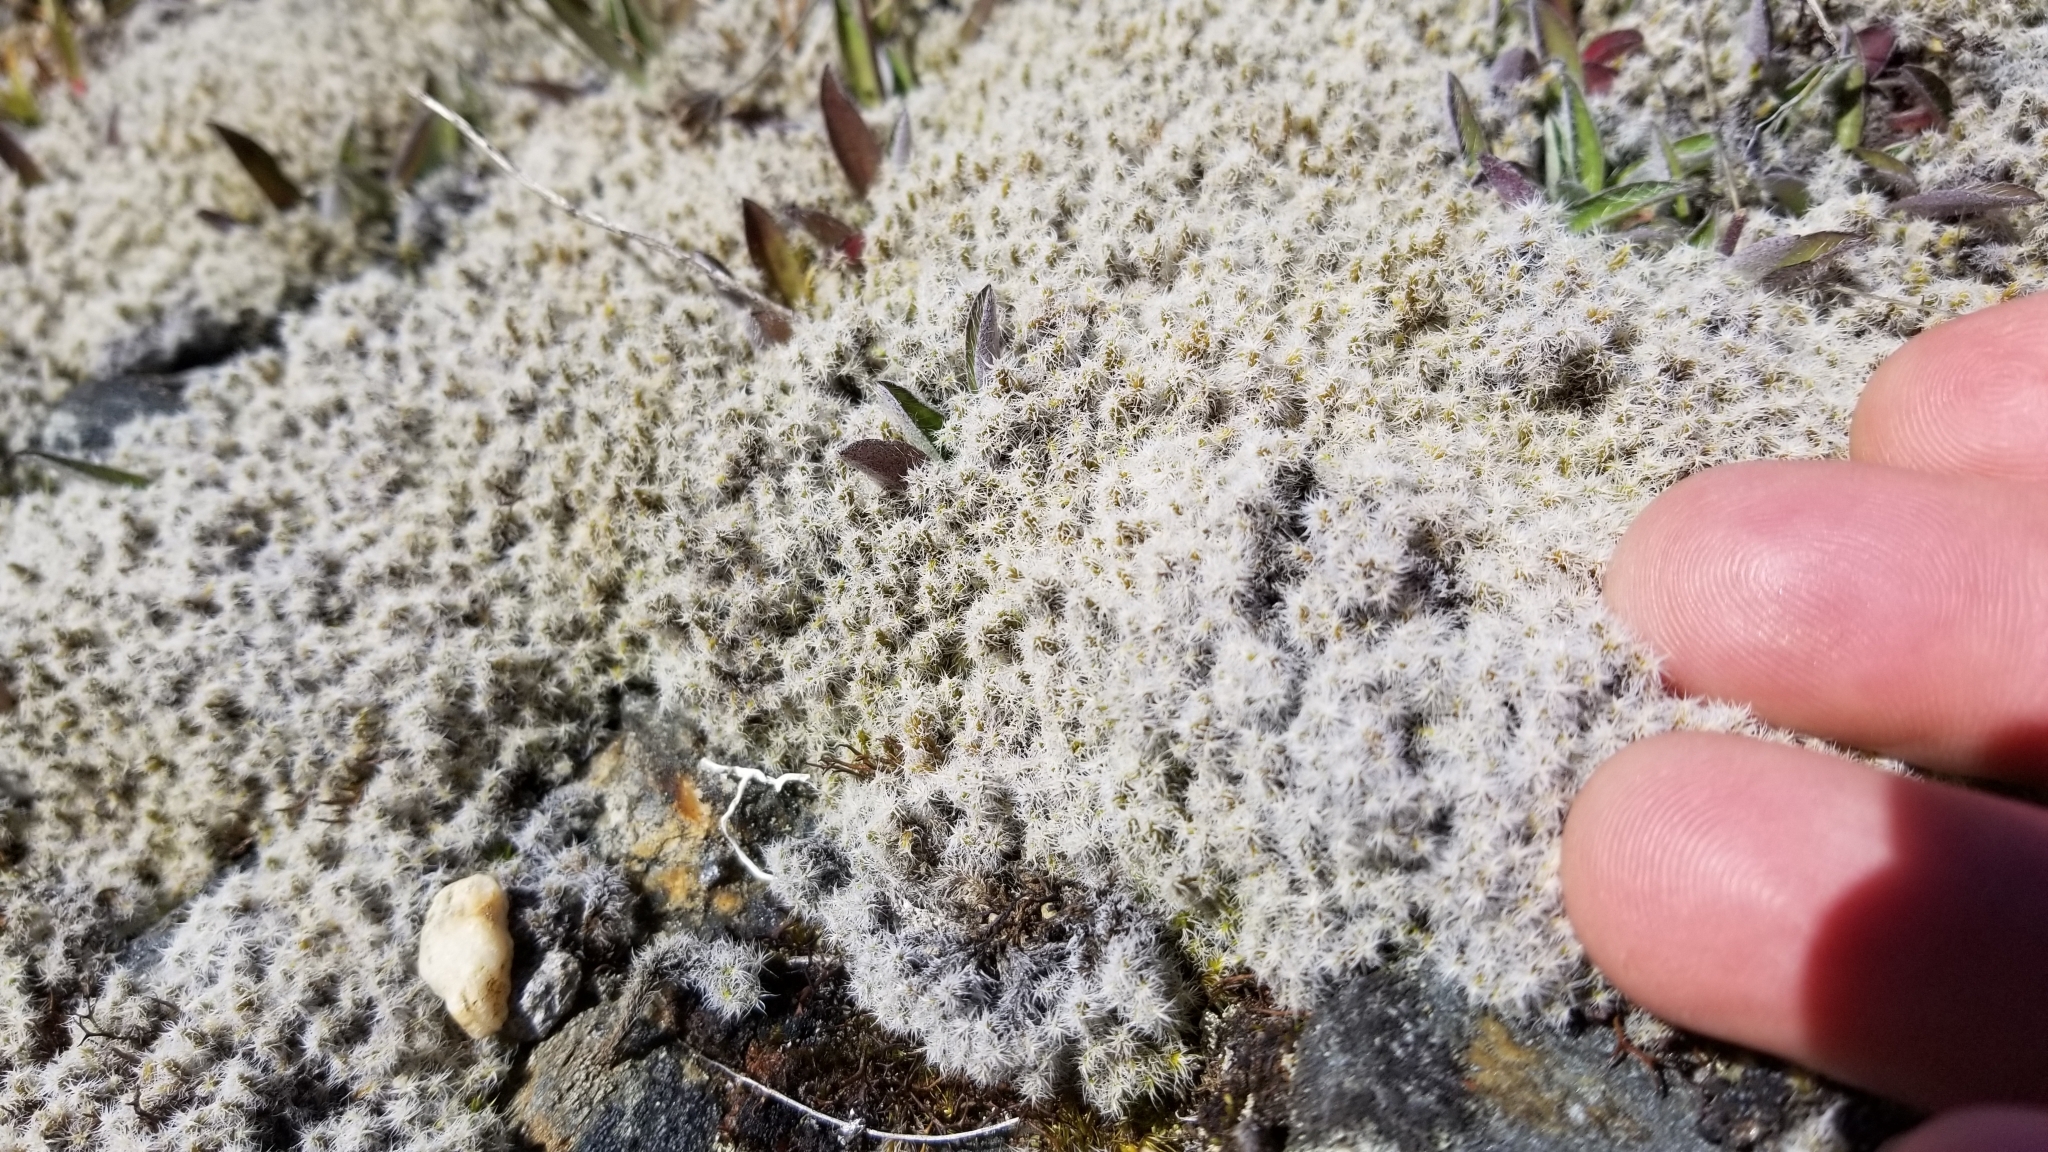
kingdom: Plantae
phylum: Bryophyta
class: Bryopsida
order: Grimmiales
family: Grimmiaceae
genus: Racomitrium
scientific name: Racomitrium lanuginosum
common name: Hoary rock moss
